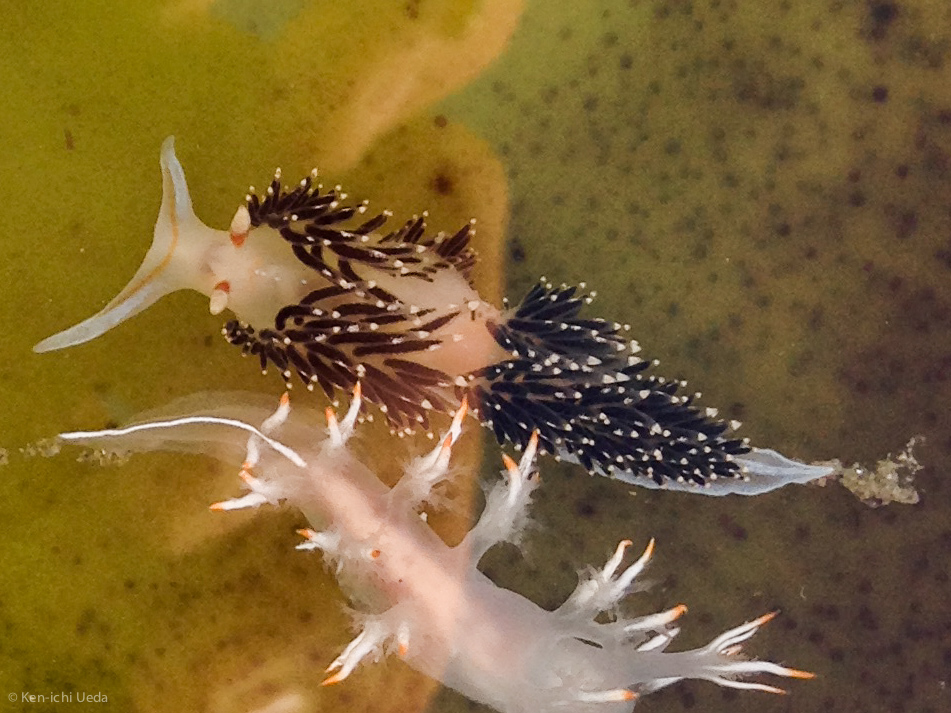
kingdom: Animalia
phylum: Mollusca
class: Gastropoda
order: Nudibranchia
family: Facelinidae
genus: Phidiana
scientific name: Phidiana hiltoni
